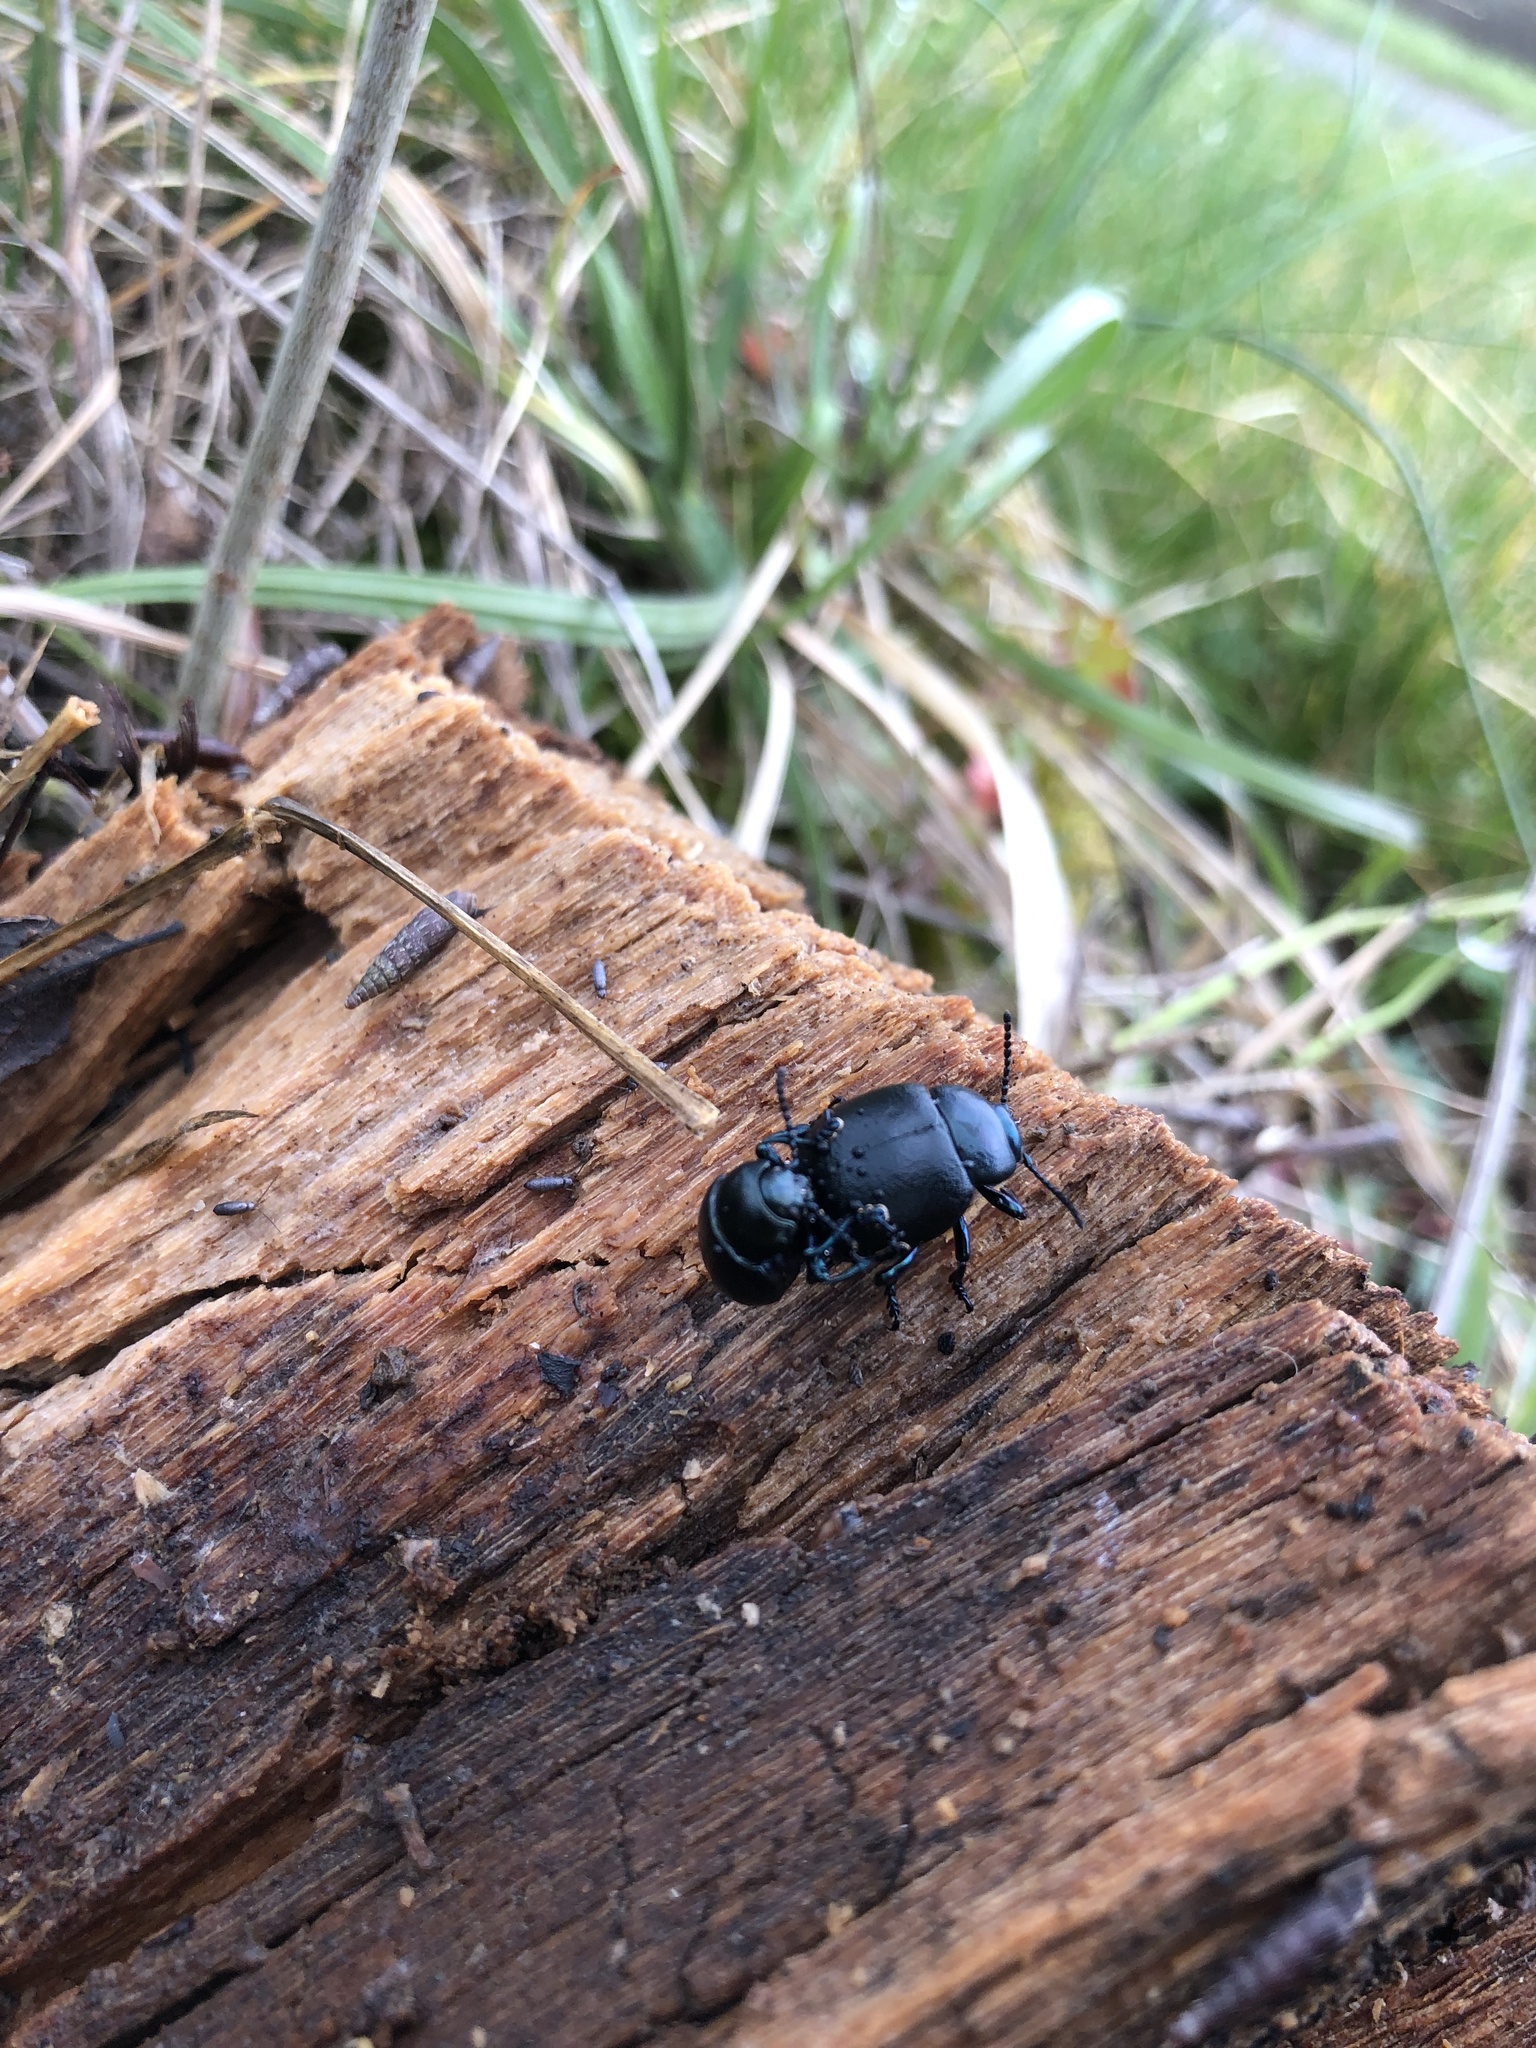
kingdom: Animalia
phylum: Arthropoda
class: Insecta
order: Coleoptera
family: Chrysomelidae
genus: Timarcha
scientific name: Timarcha goettingensis
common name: Small bloody-nosed beetle
